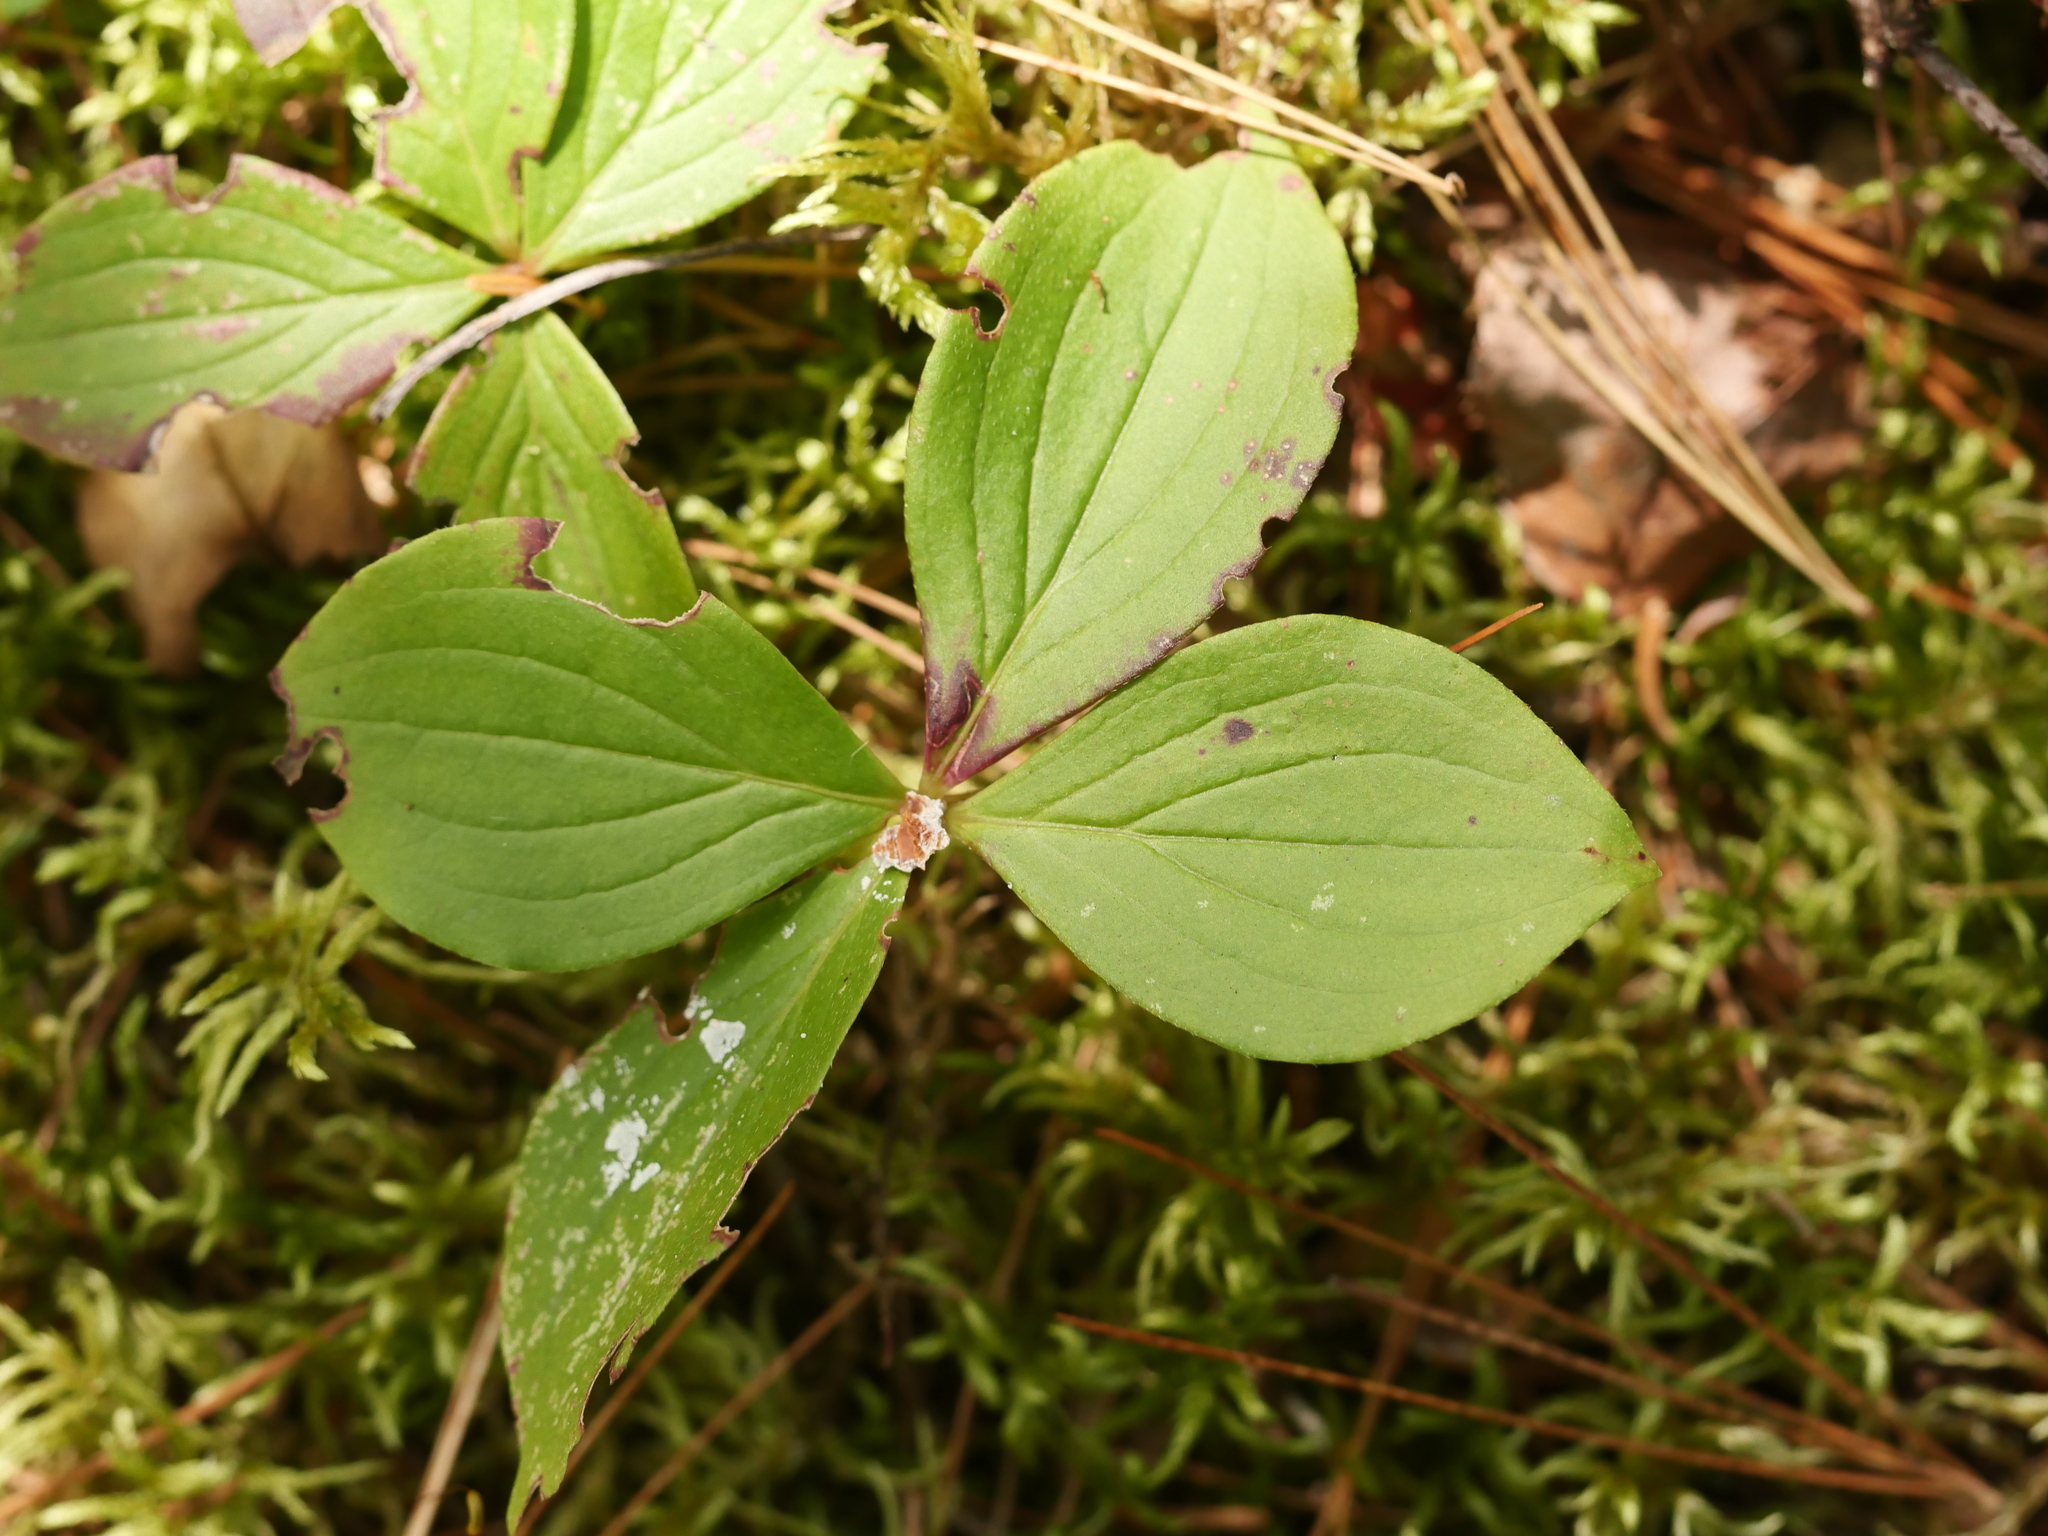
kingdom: Plantae
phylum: Tracheophyta
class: Magnoliopsida
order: Cornales
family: Cornaceae
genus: Cornus
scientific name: Cornus canadensis
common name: Creeping dogwood
